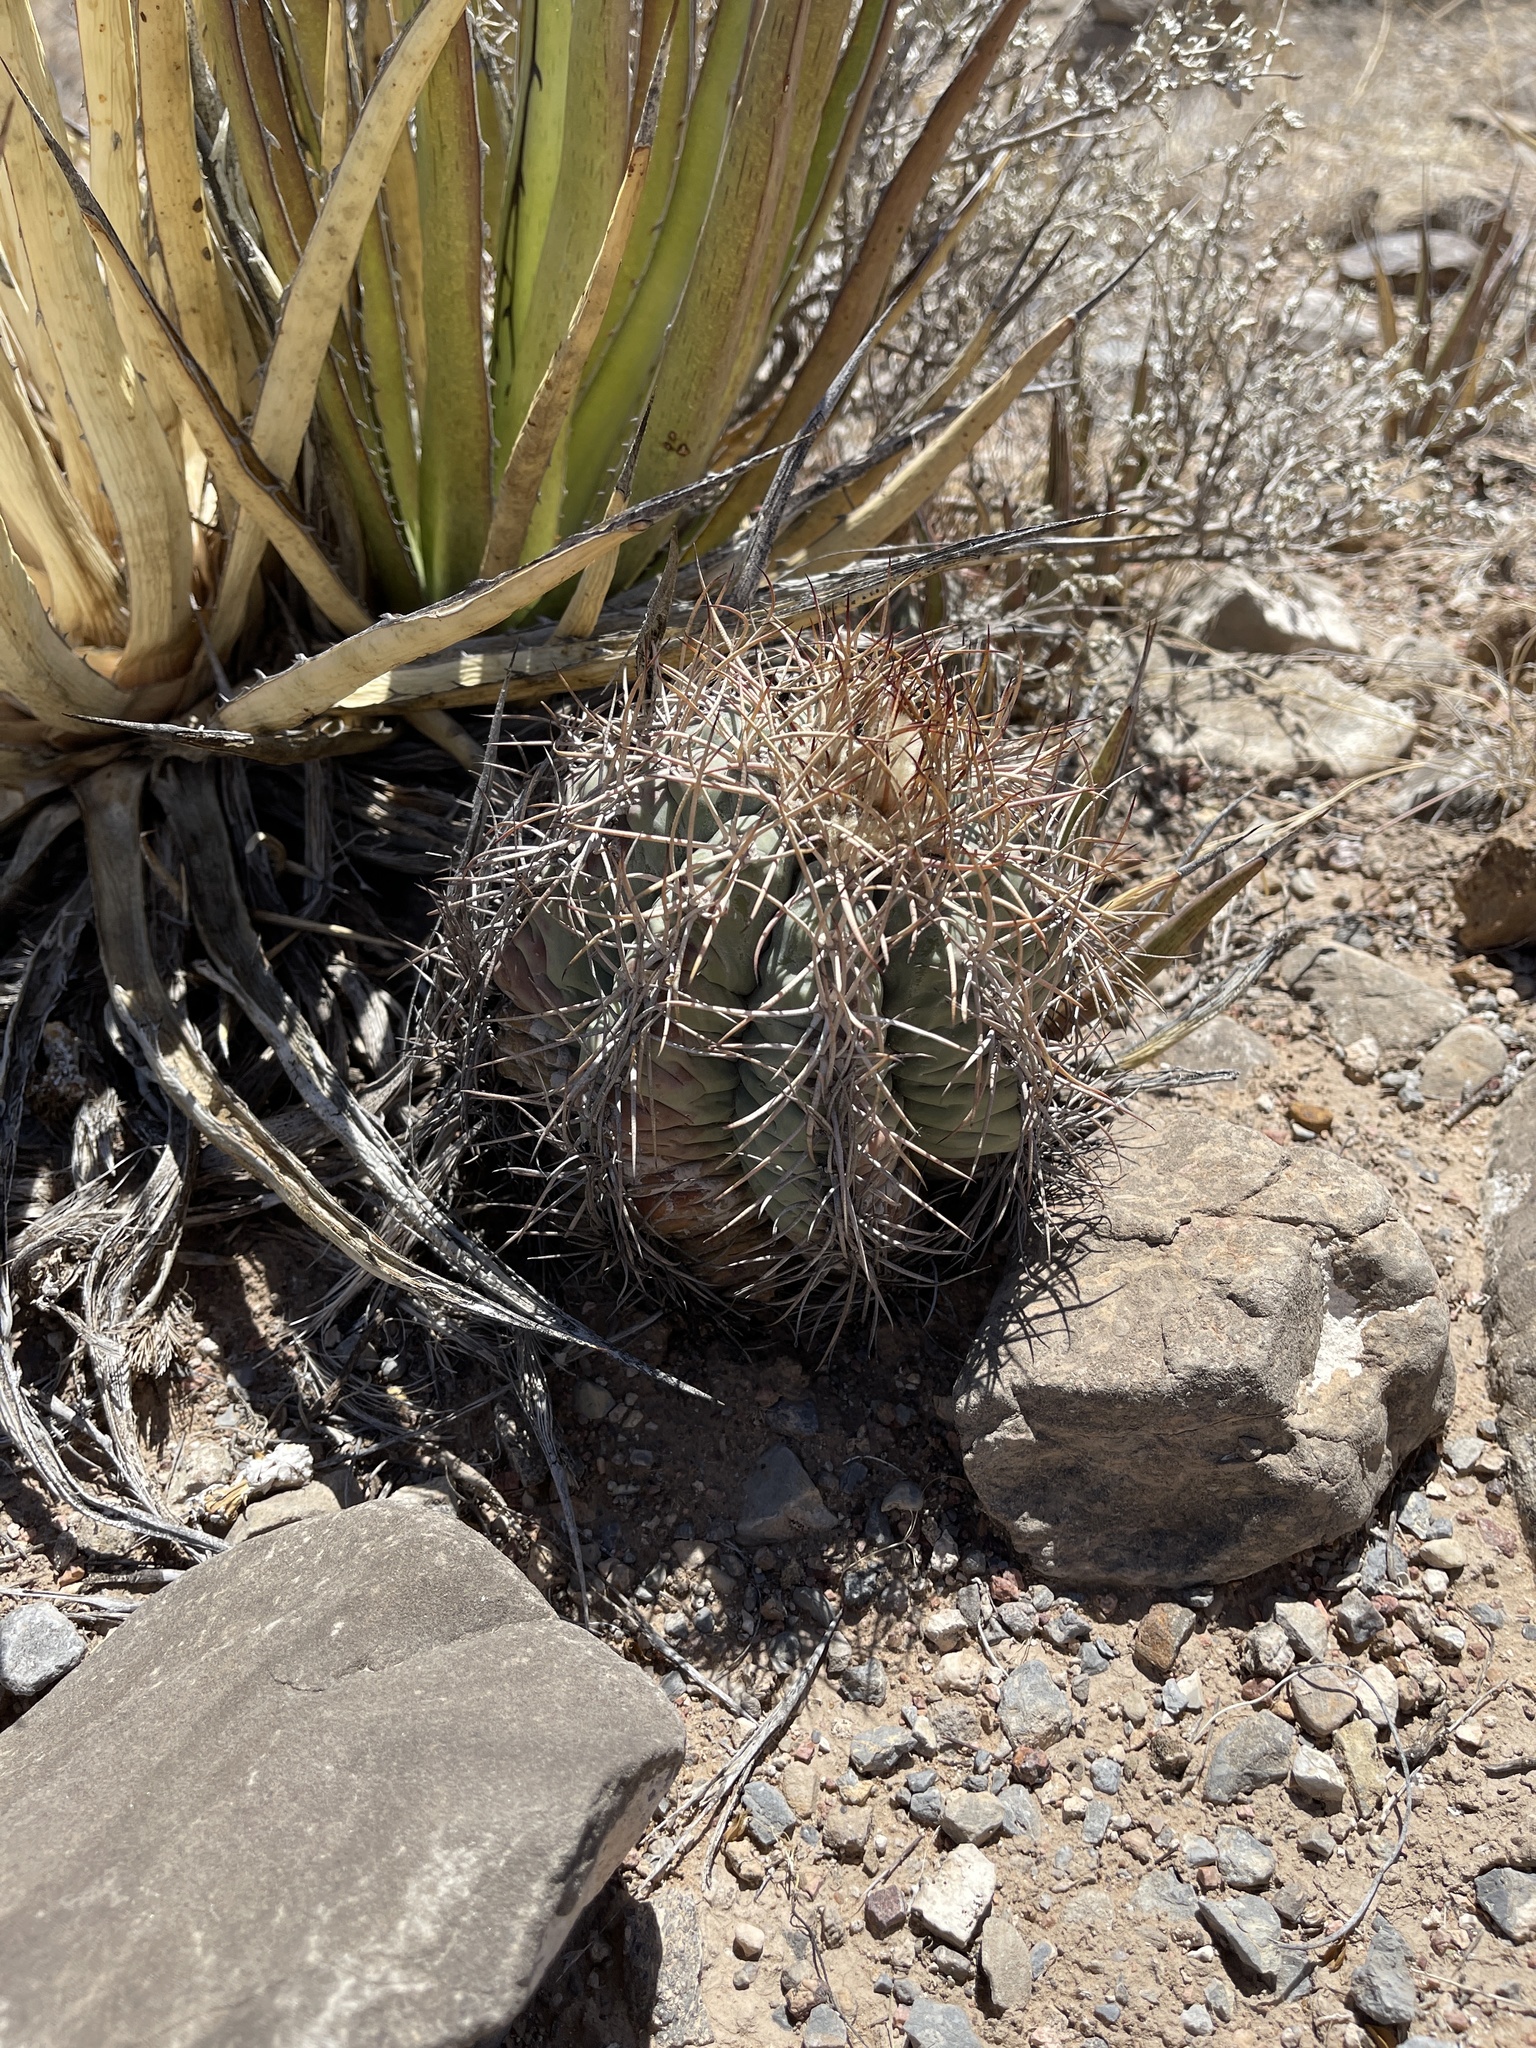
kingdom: Plantae
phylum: Tracheophyta
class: Magnoliopsida
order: Caryophyllales
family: Cactaceae
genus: Echinocactus
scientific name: Echinocactus horizonthalonius
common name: Devilshead
